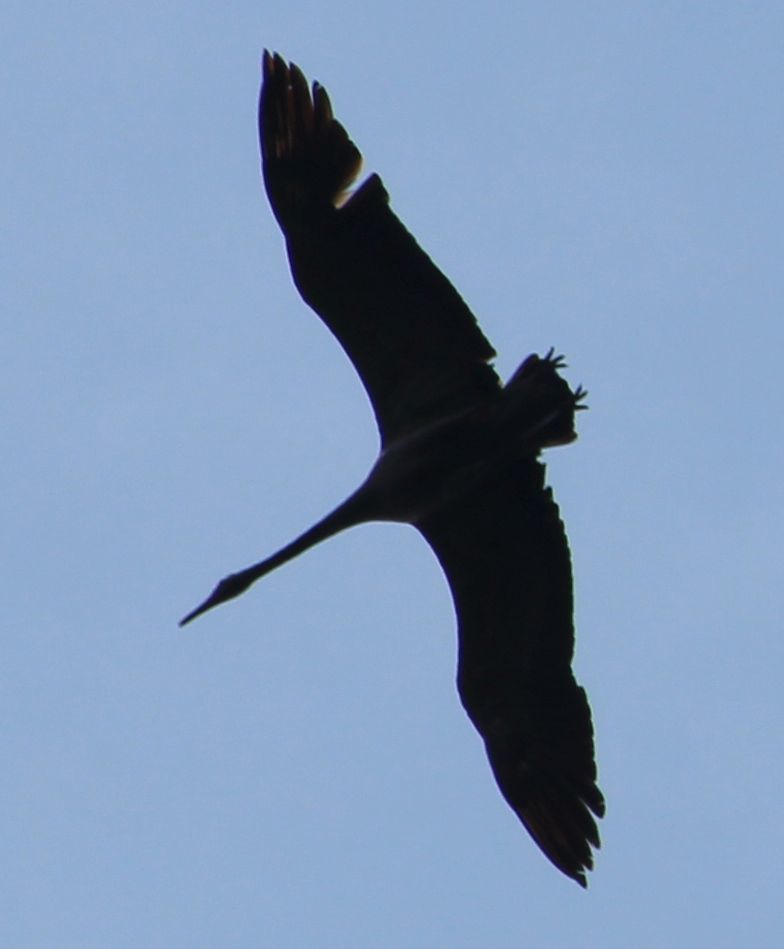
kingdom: Animalia
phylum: Chordata
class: Aves
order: Gruiformes
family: Gruidae
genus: Grus
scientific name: Grus grus
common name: Common crane
